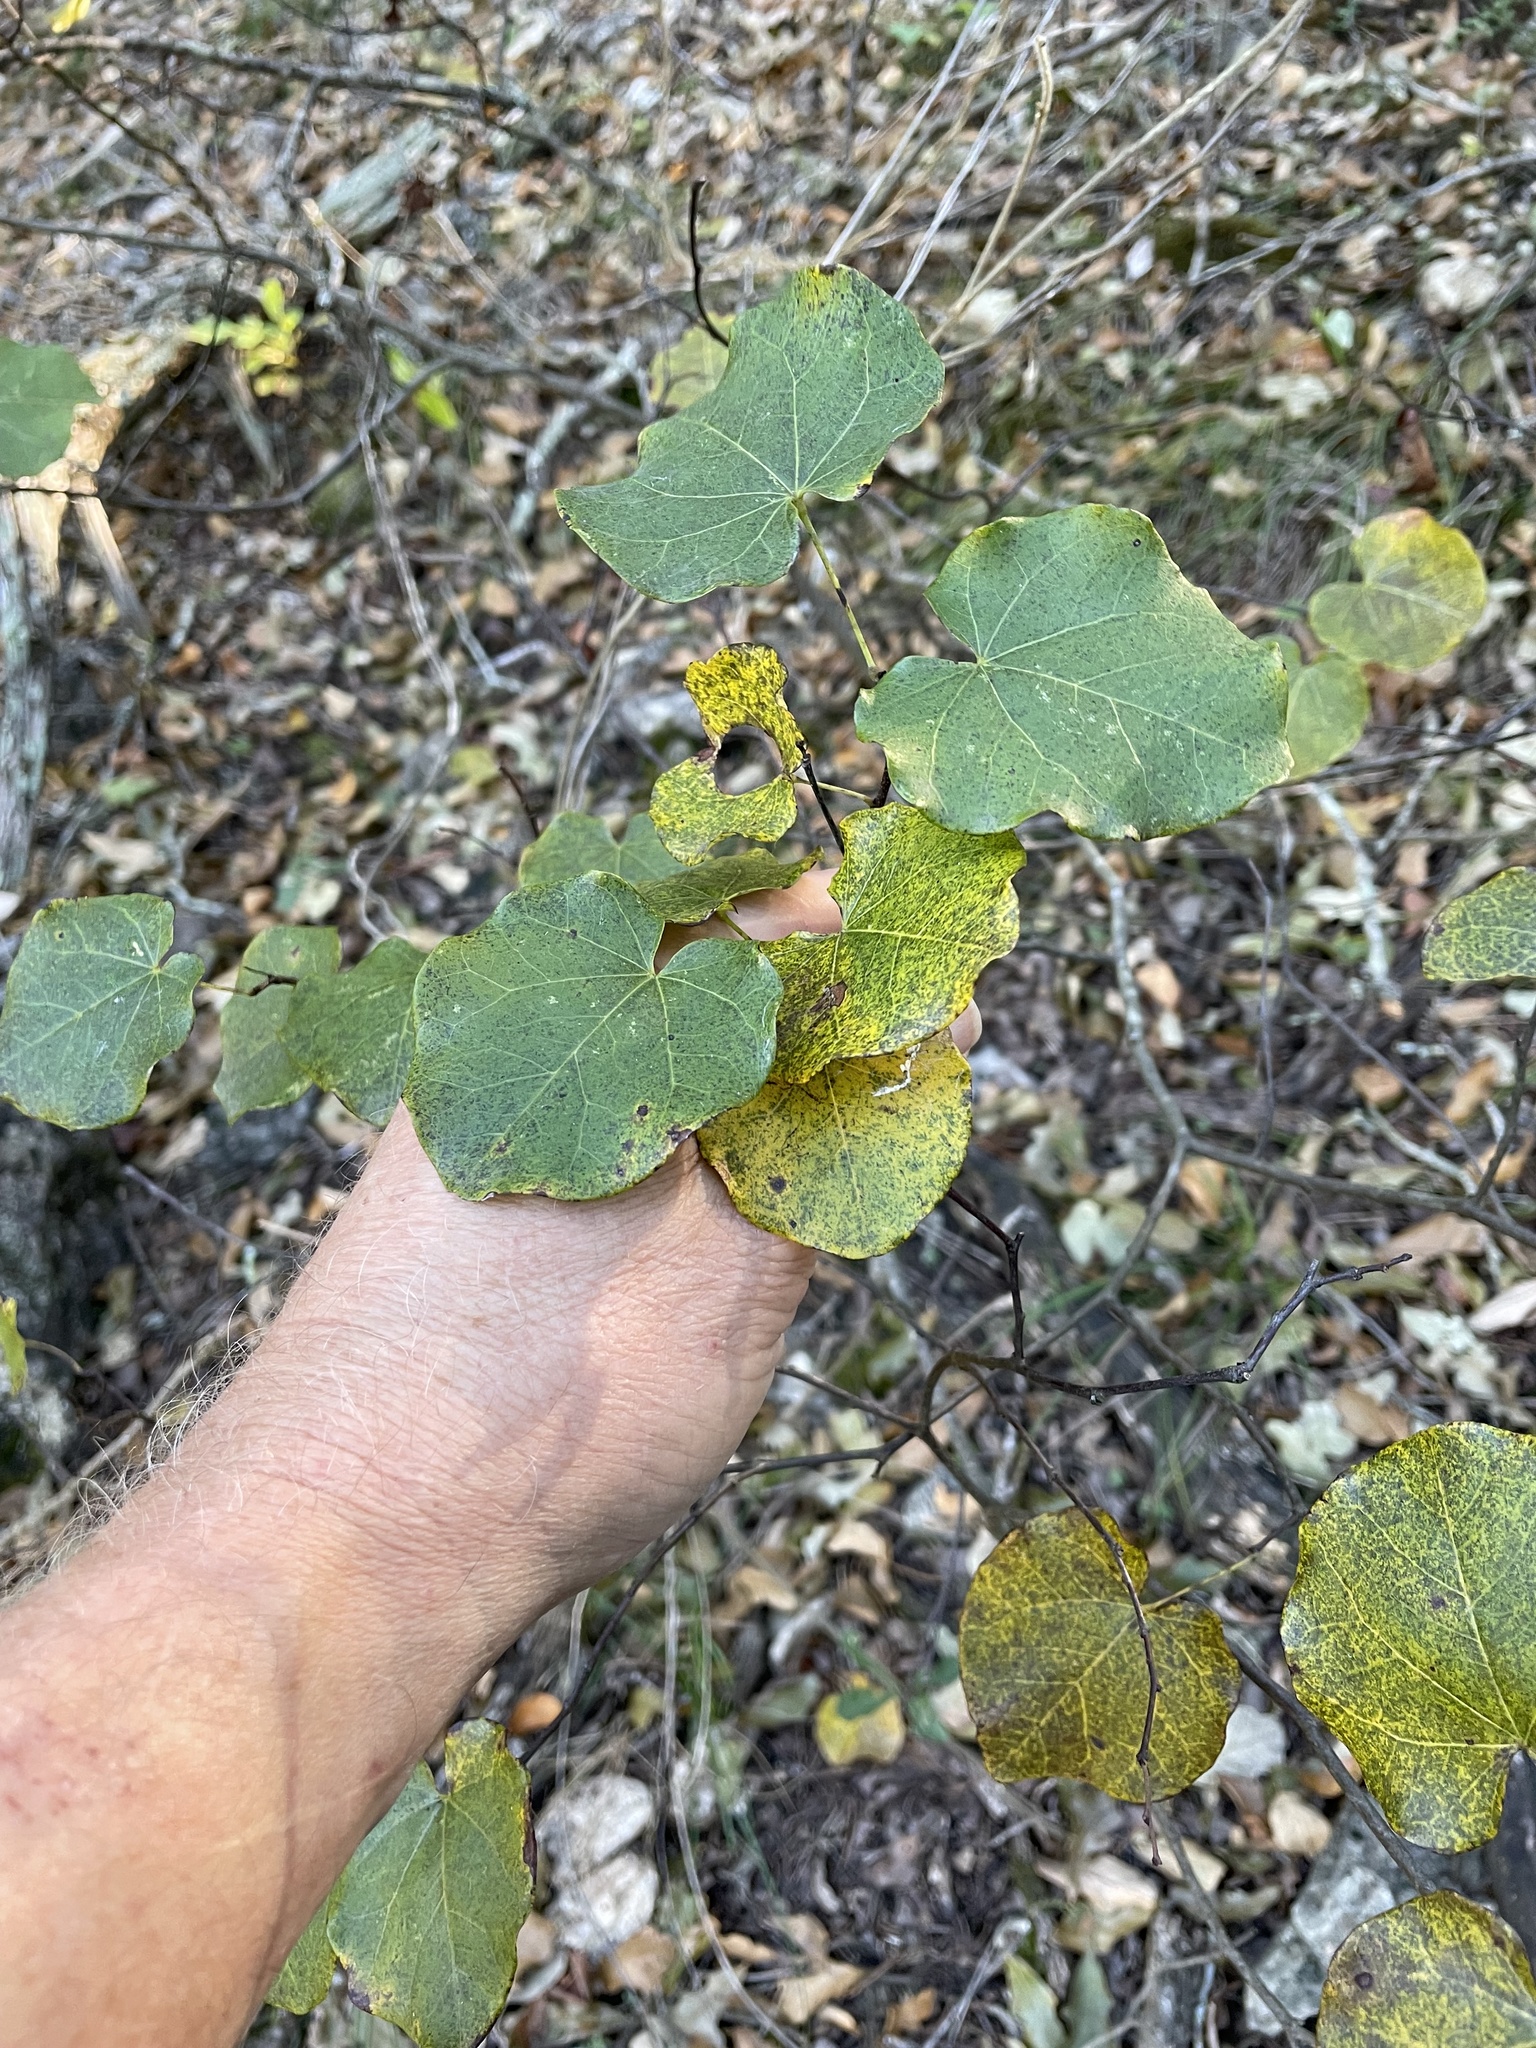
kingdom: Plantae
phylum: Tracheophyta
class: Magnoliopsida
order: Fabales
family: Fabaceae
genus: Cercis
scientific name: Cercis canadensis
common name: Eastern redbud
